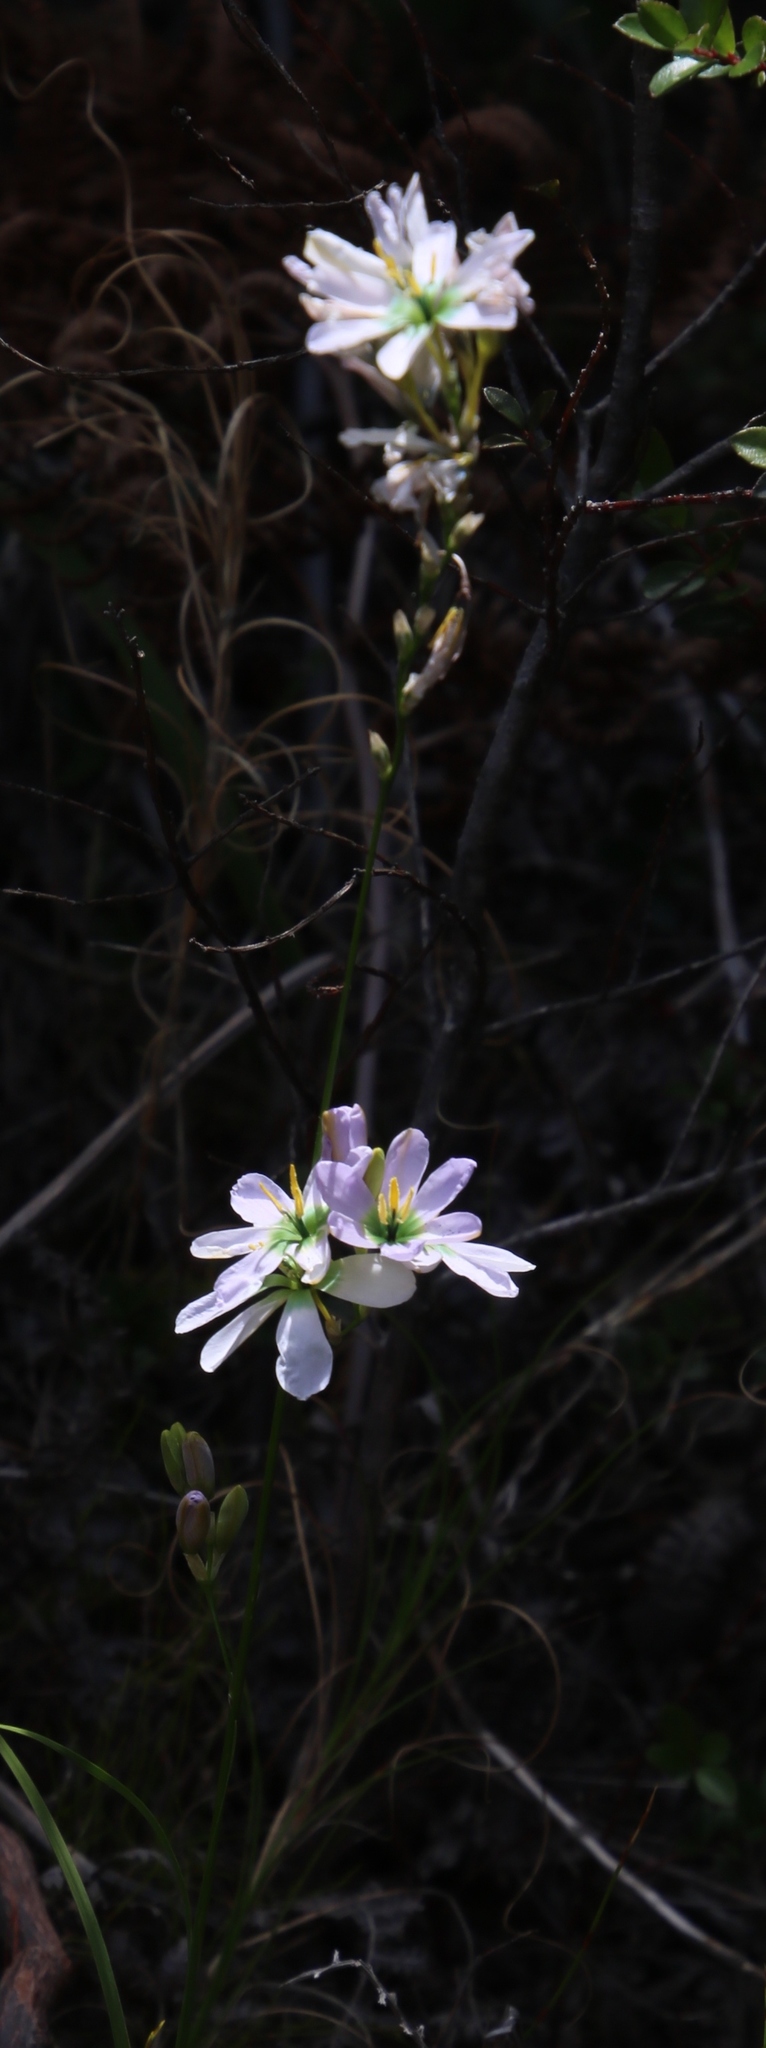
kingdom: Plantae
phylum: Tracheophyta
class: Liliopsida
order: Asparagales
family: Iridaceae
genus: Ixia
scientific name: Ixia polystachya
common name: White-and-yellow-flower cornlily
